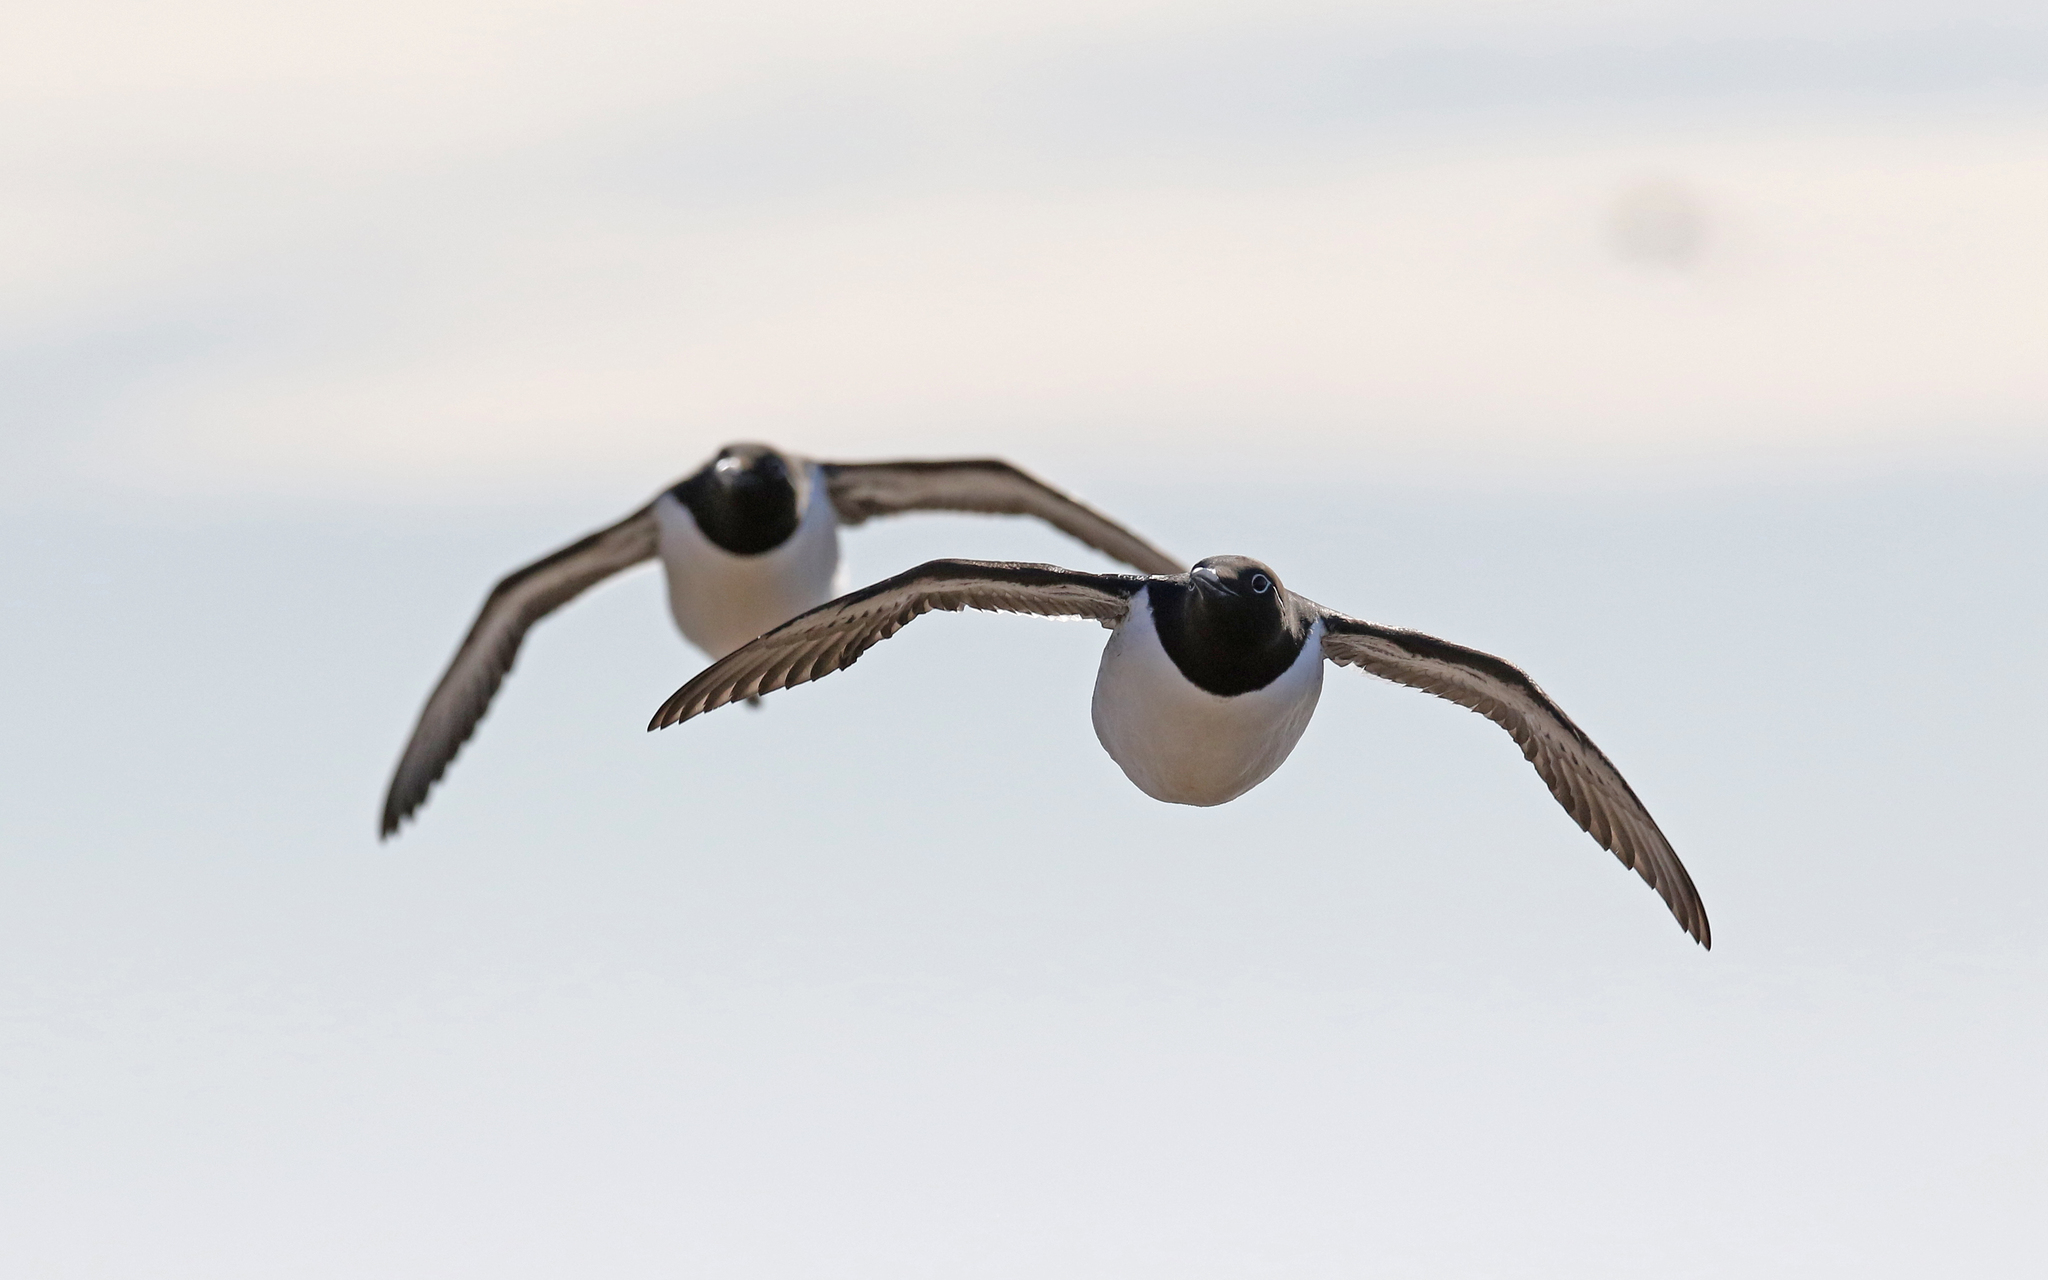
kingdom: Animalia
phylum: Chordata
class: Aves
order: Charadriiformes
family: Alcidae
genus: Uria
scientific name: Uria aalge
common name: Common murre
